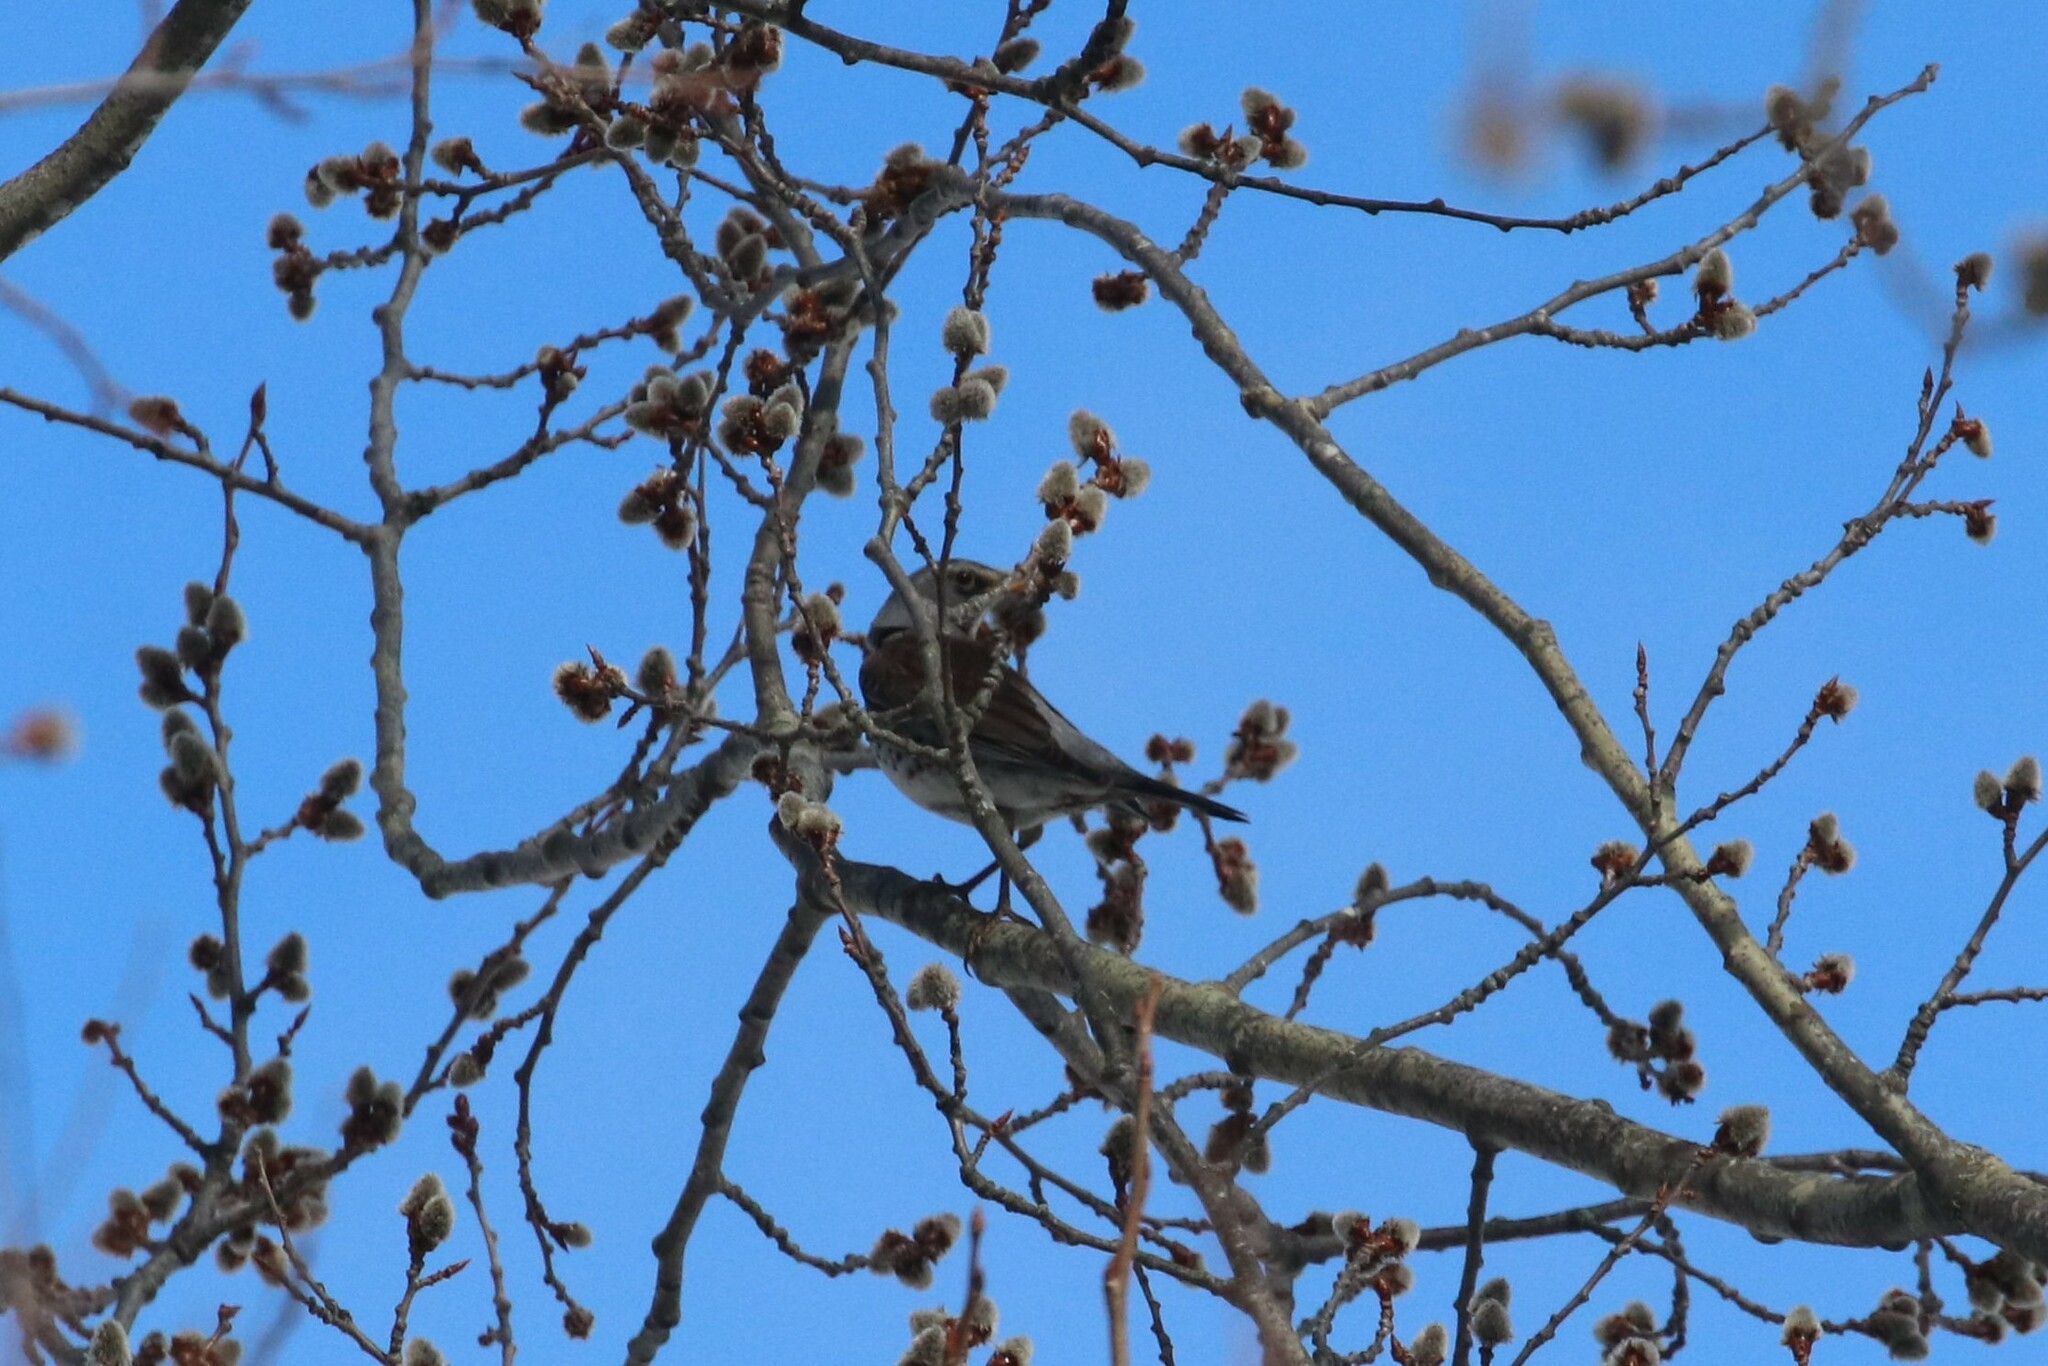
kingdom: Animalia
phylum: Chordata
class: Aves
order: Passeriformes
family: Turdidae
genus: Turdus
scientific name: Turdus pilaris
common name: Fieldfare
